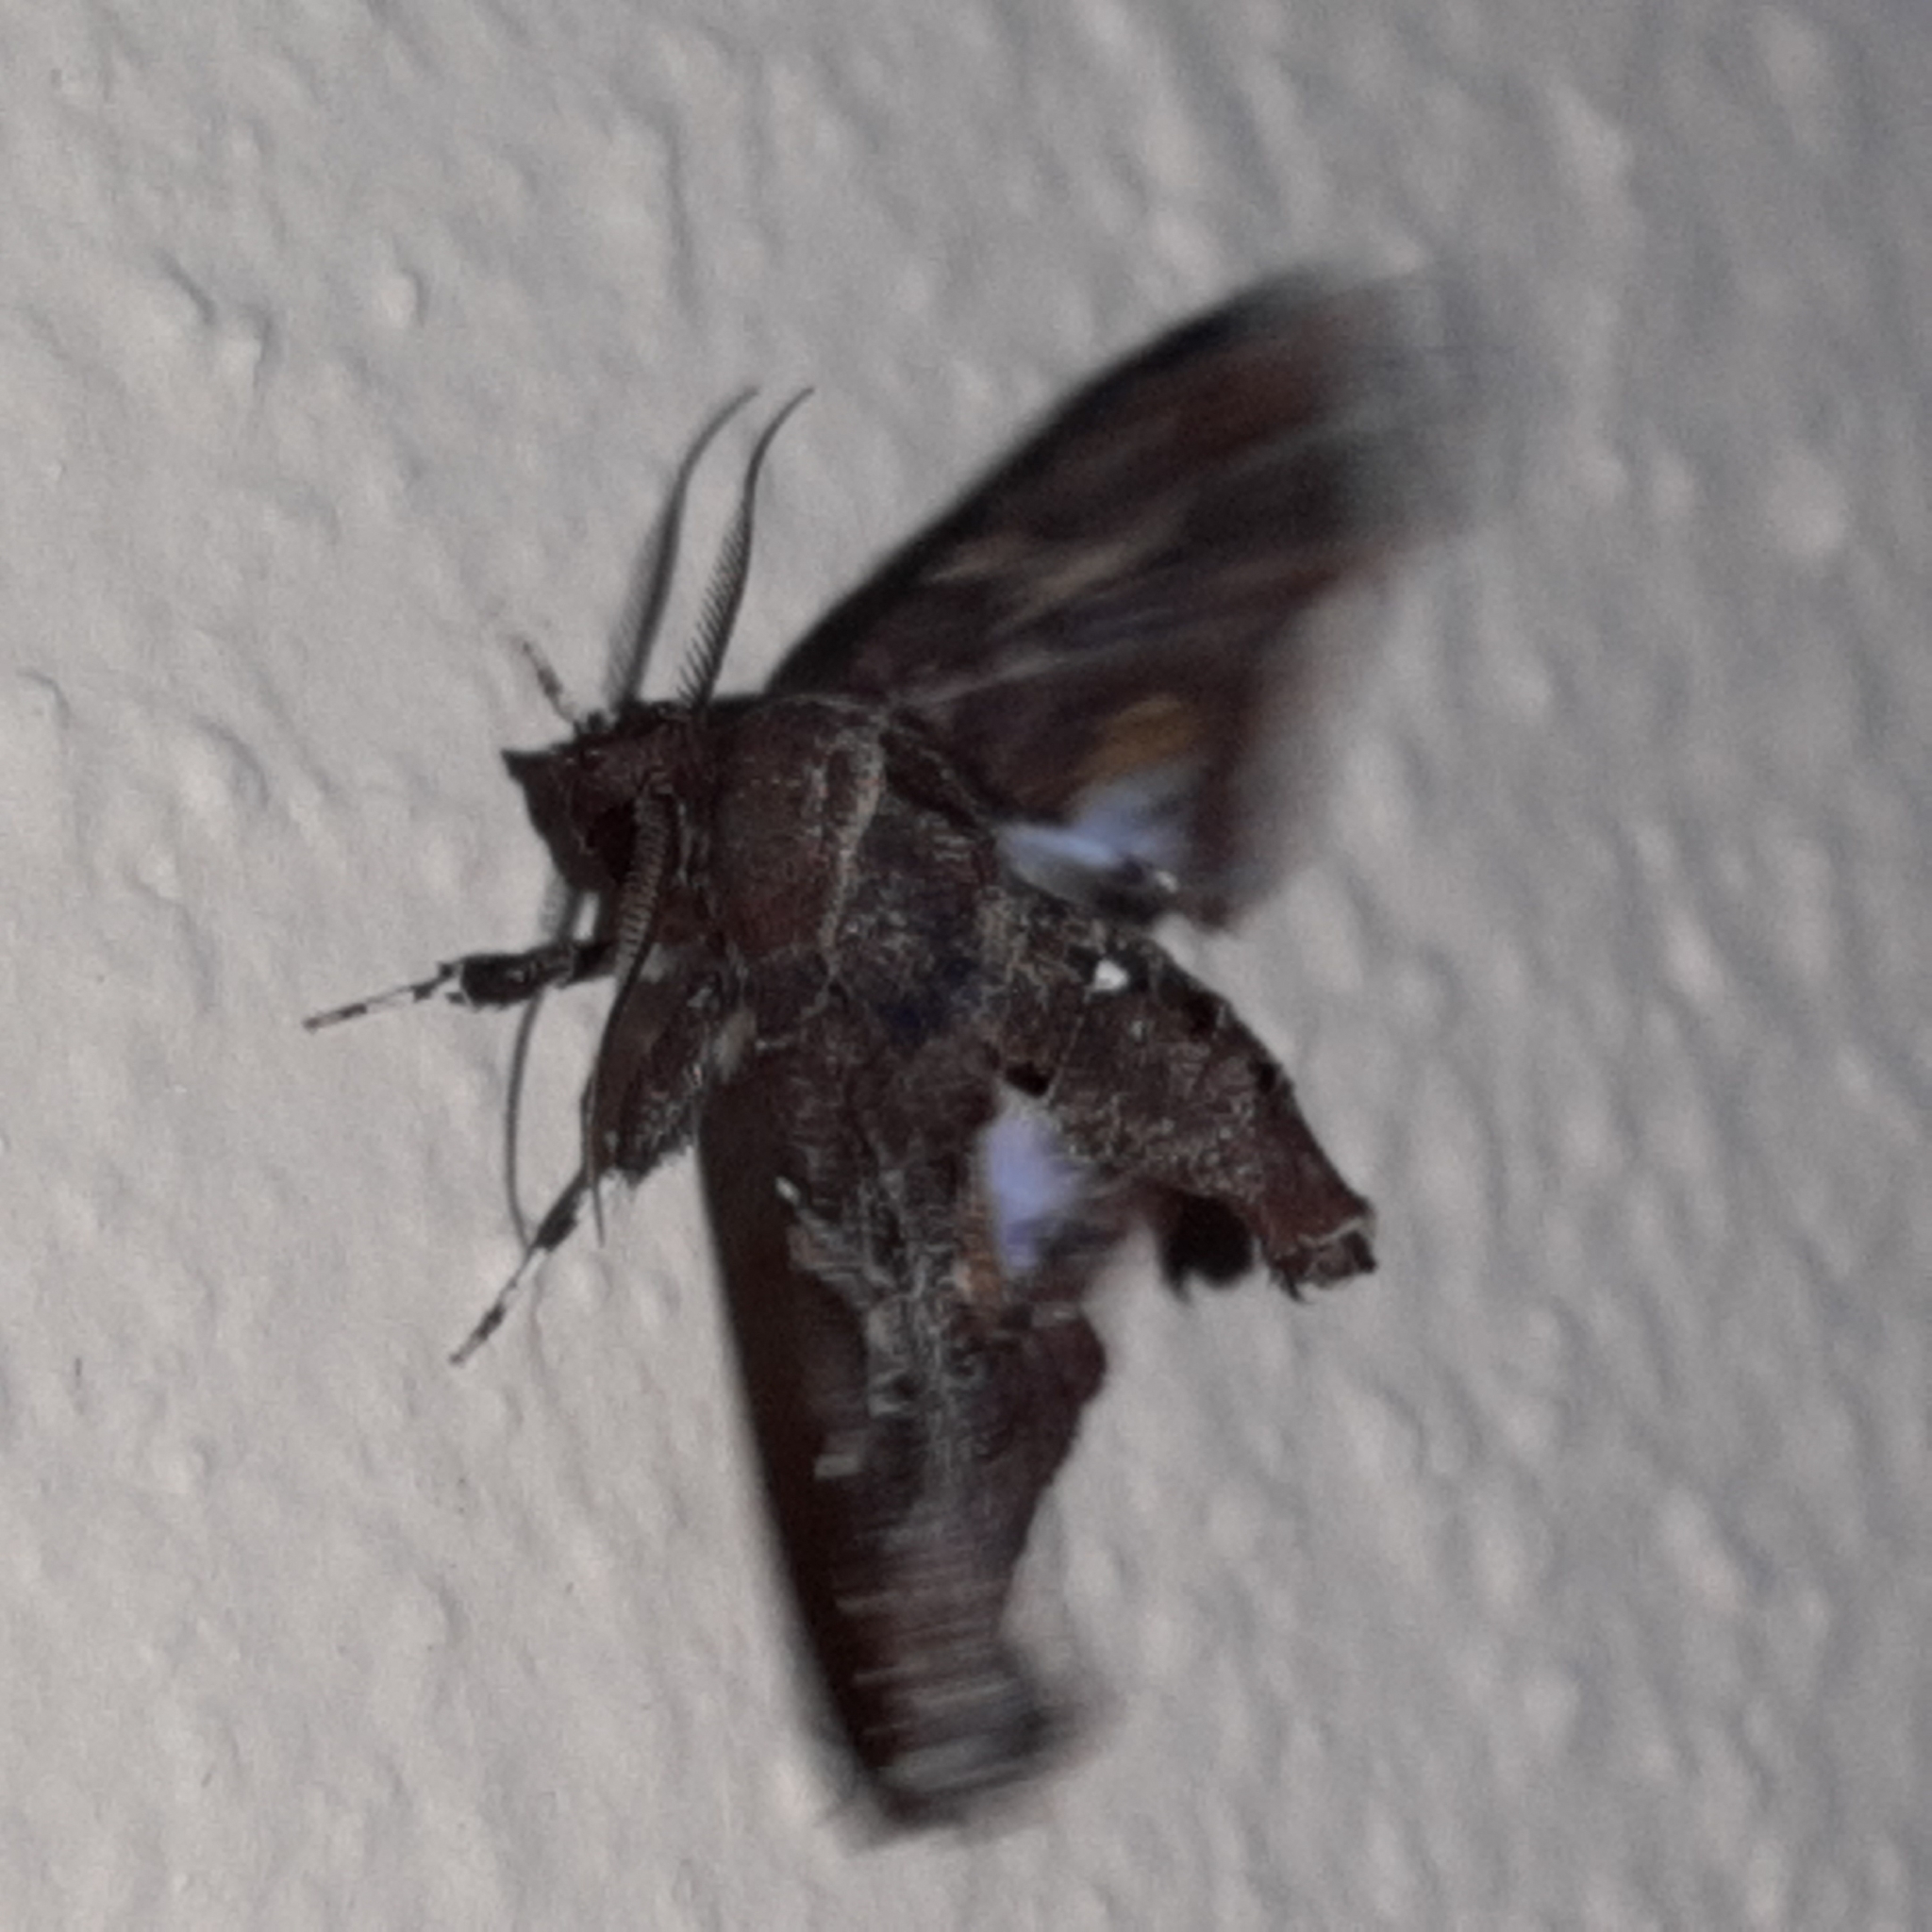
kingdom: Animalia
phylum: Arthropoda
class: Insecta
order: Lepidoptera
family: Euteliidae
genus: Eutelia
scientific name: Eutelia auratrix
